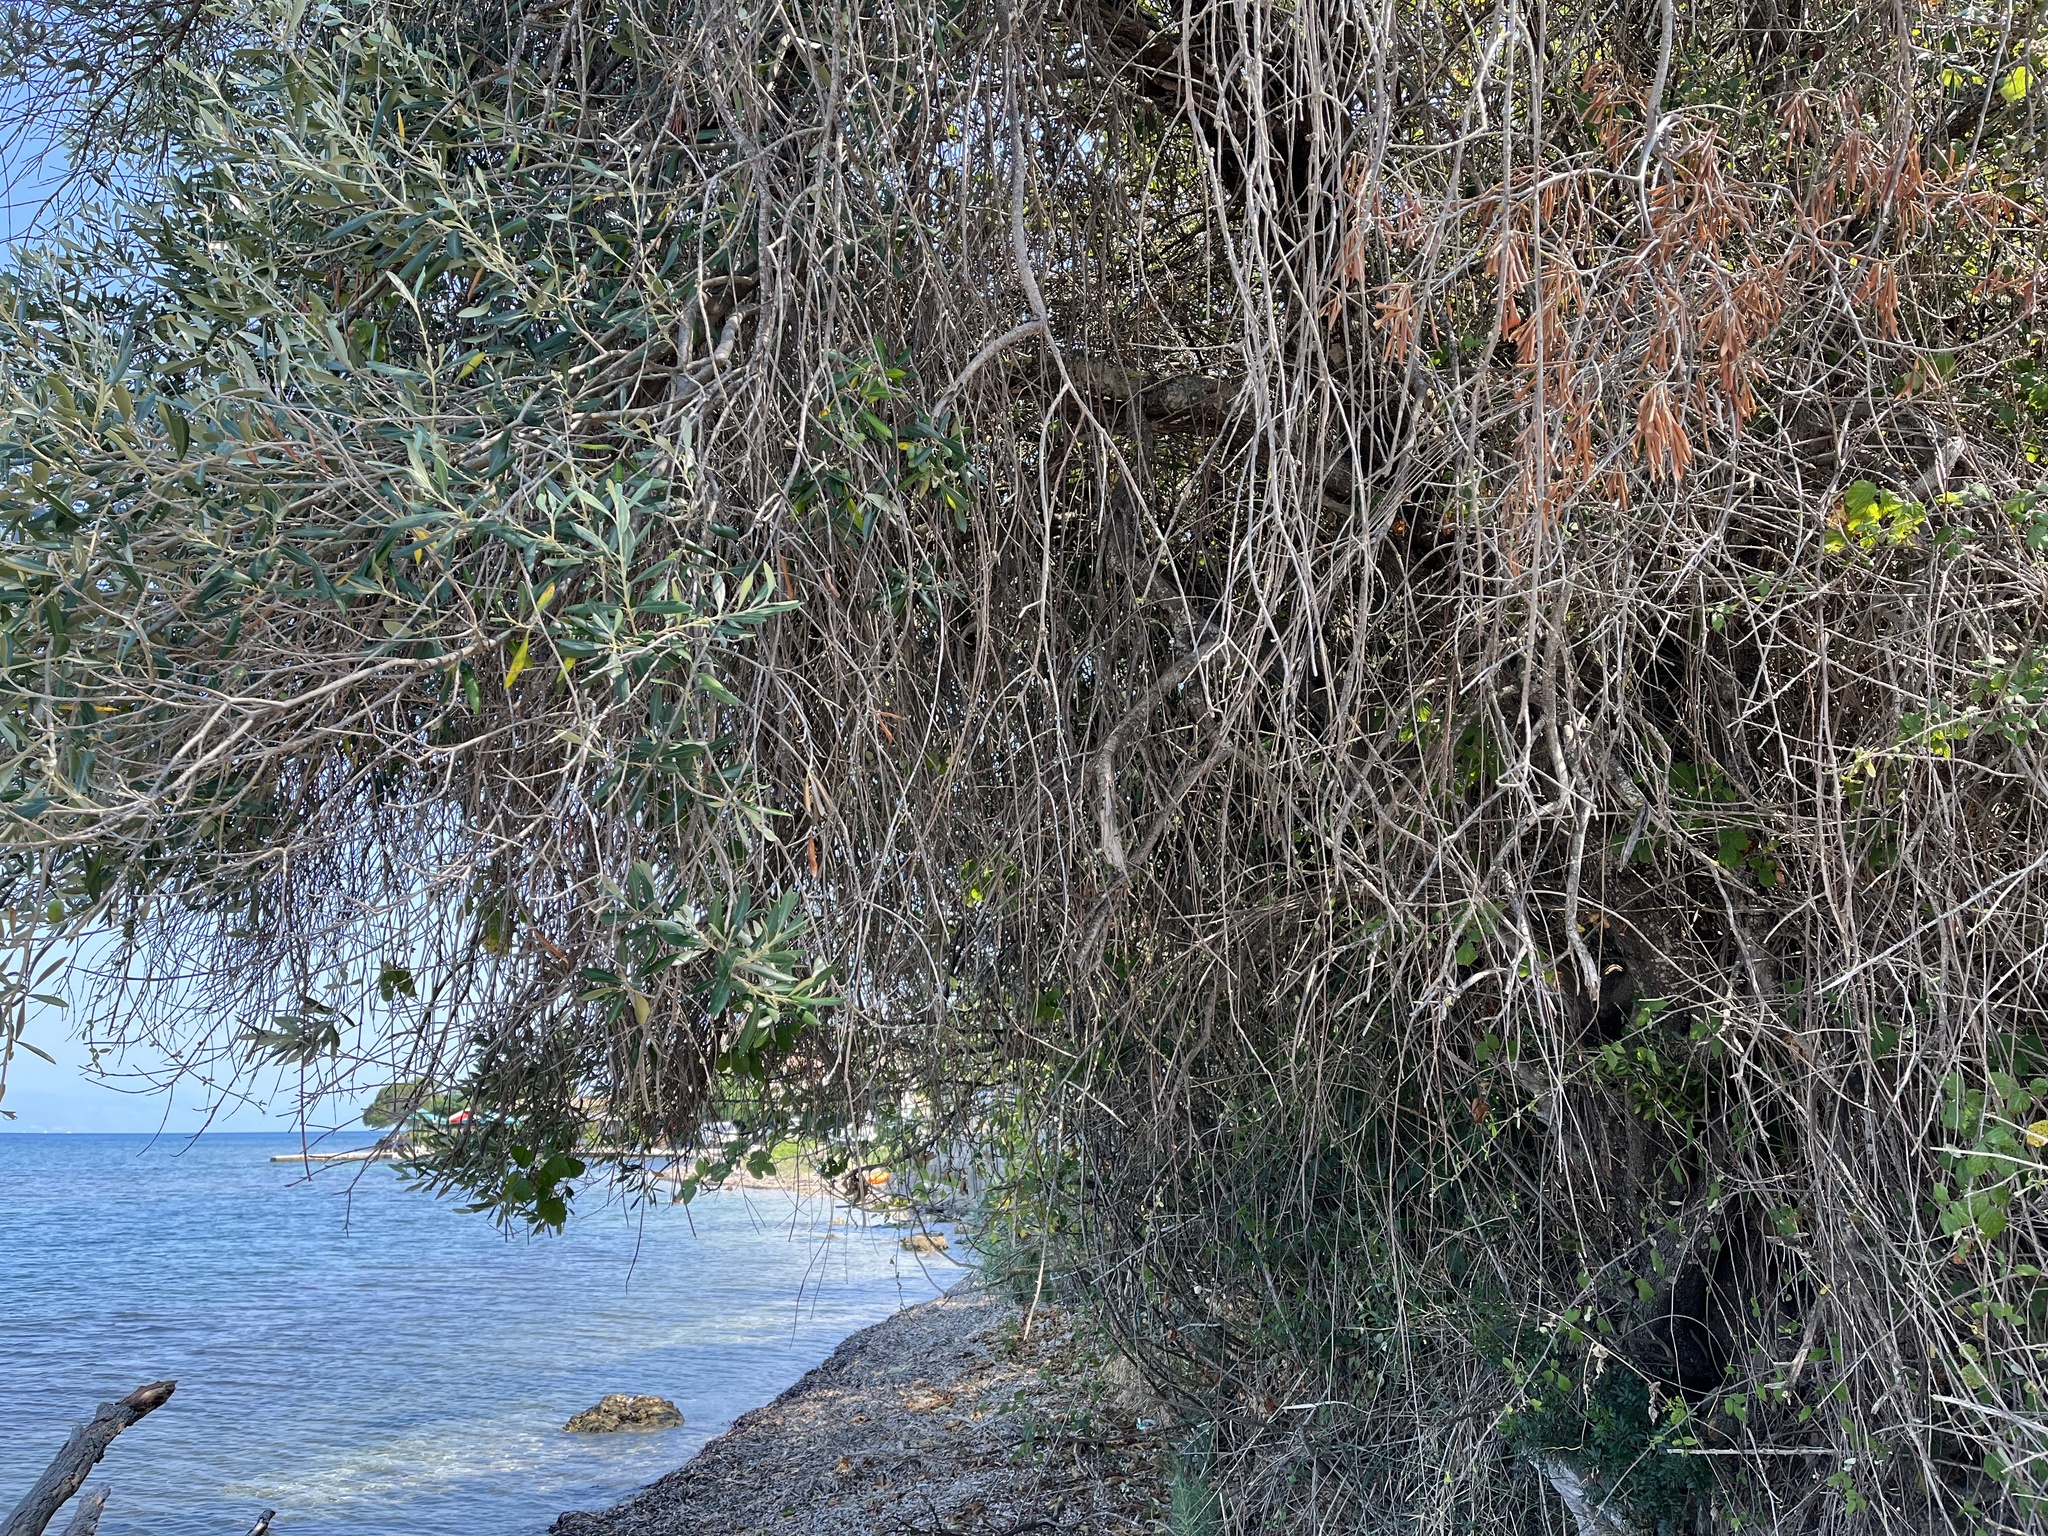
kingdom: Plantae
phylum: Tracheophyta
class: Magnoliopsida
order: Lamiales
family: Oleaceae
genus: Olea
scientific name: Olea europaea
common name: Olive
